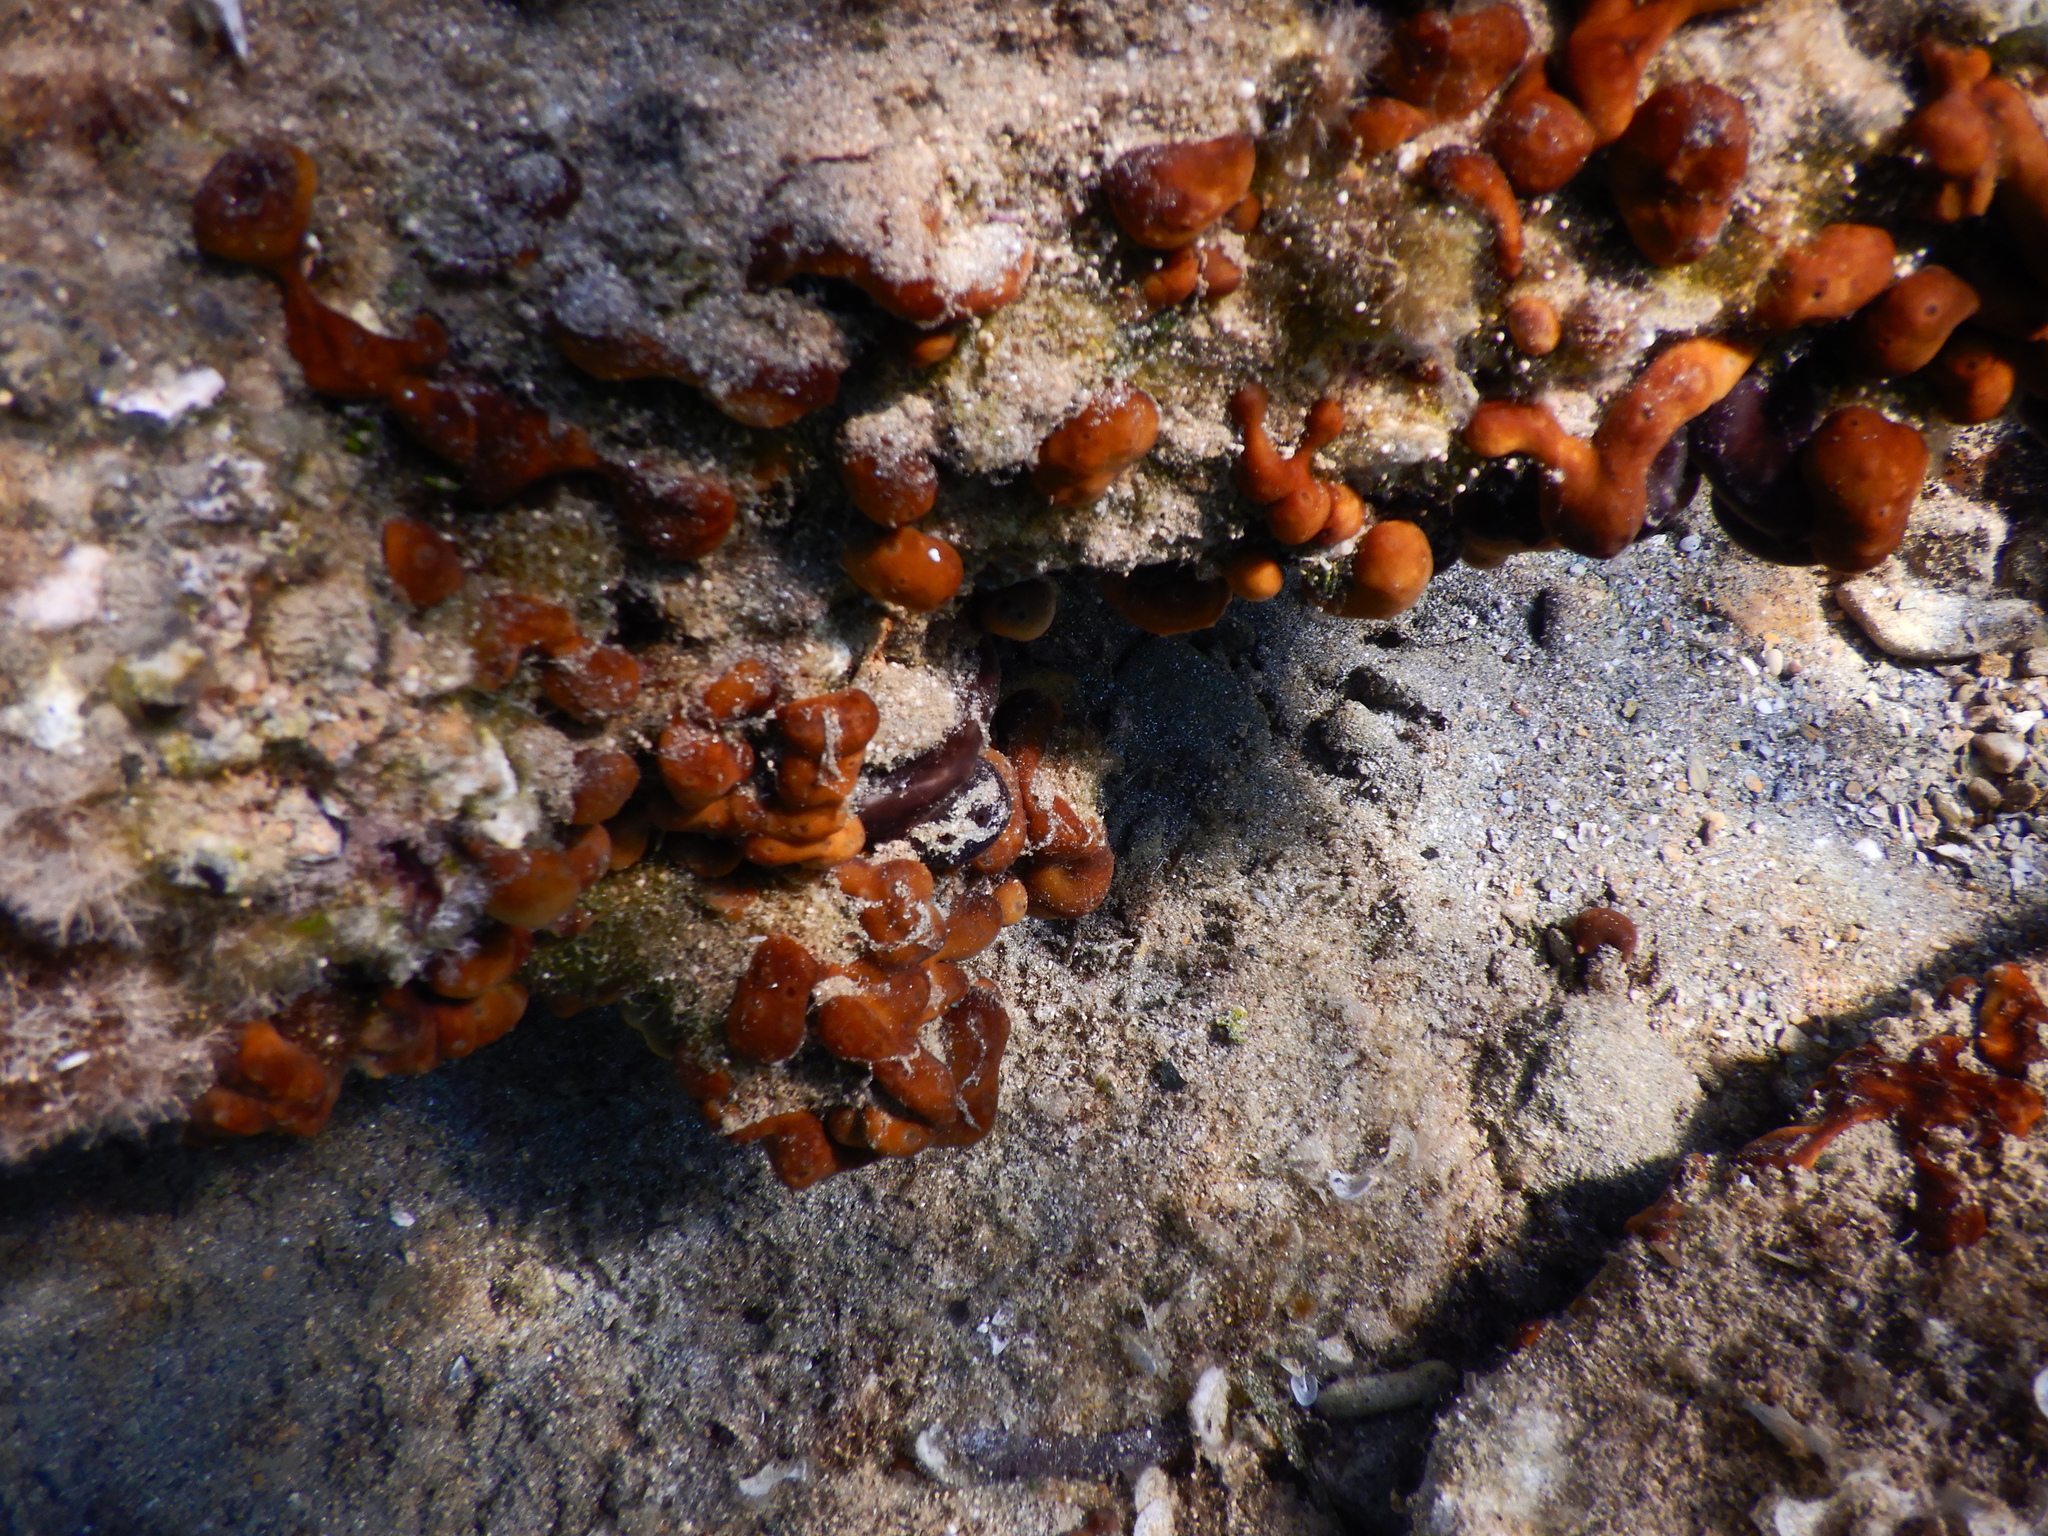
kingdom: Animalia
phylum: Porifera
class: Demospongiae
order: Chondrillida
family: Chondrillidae
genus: Chondrilla
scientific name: Chondrilla nucula
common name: Chicken liver sponge
